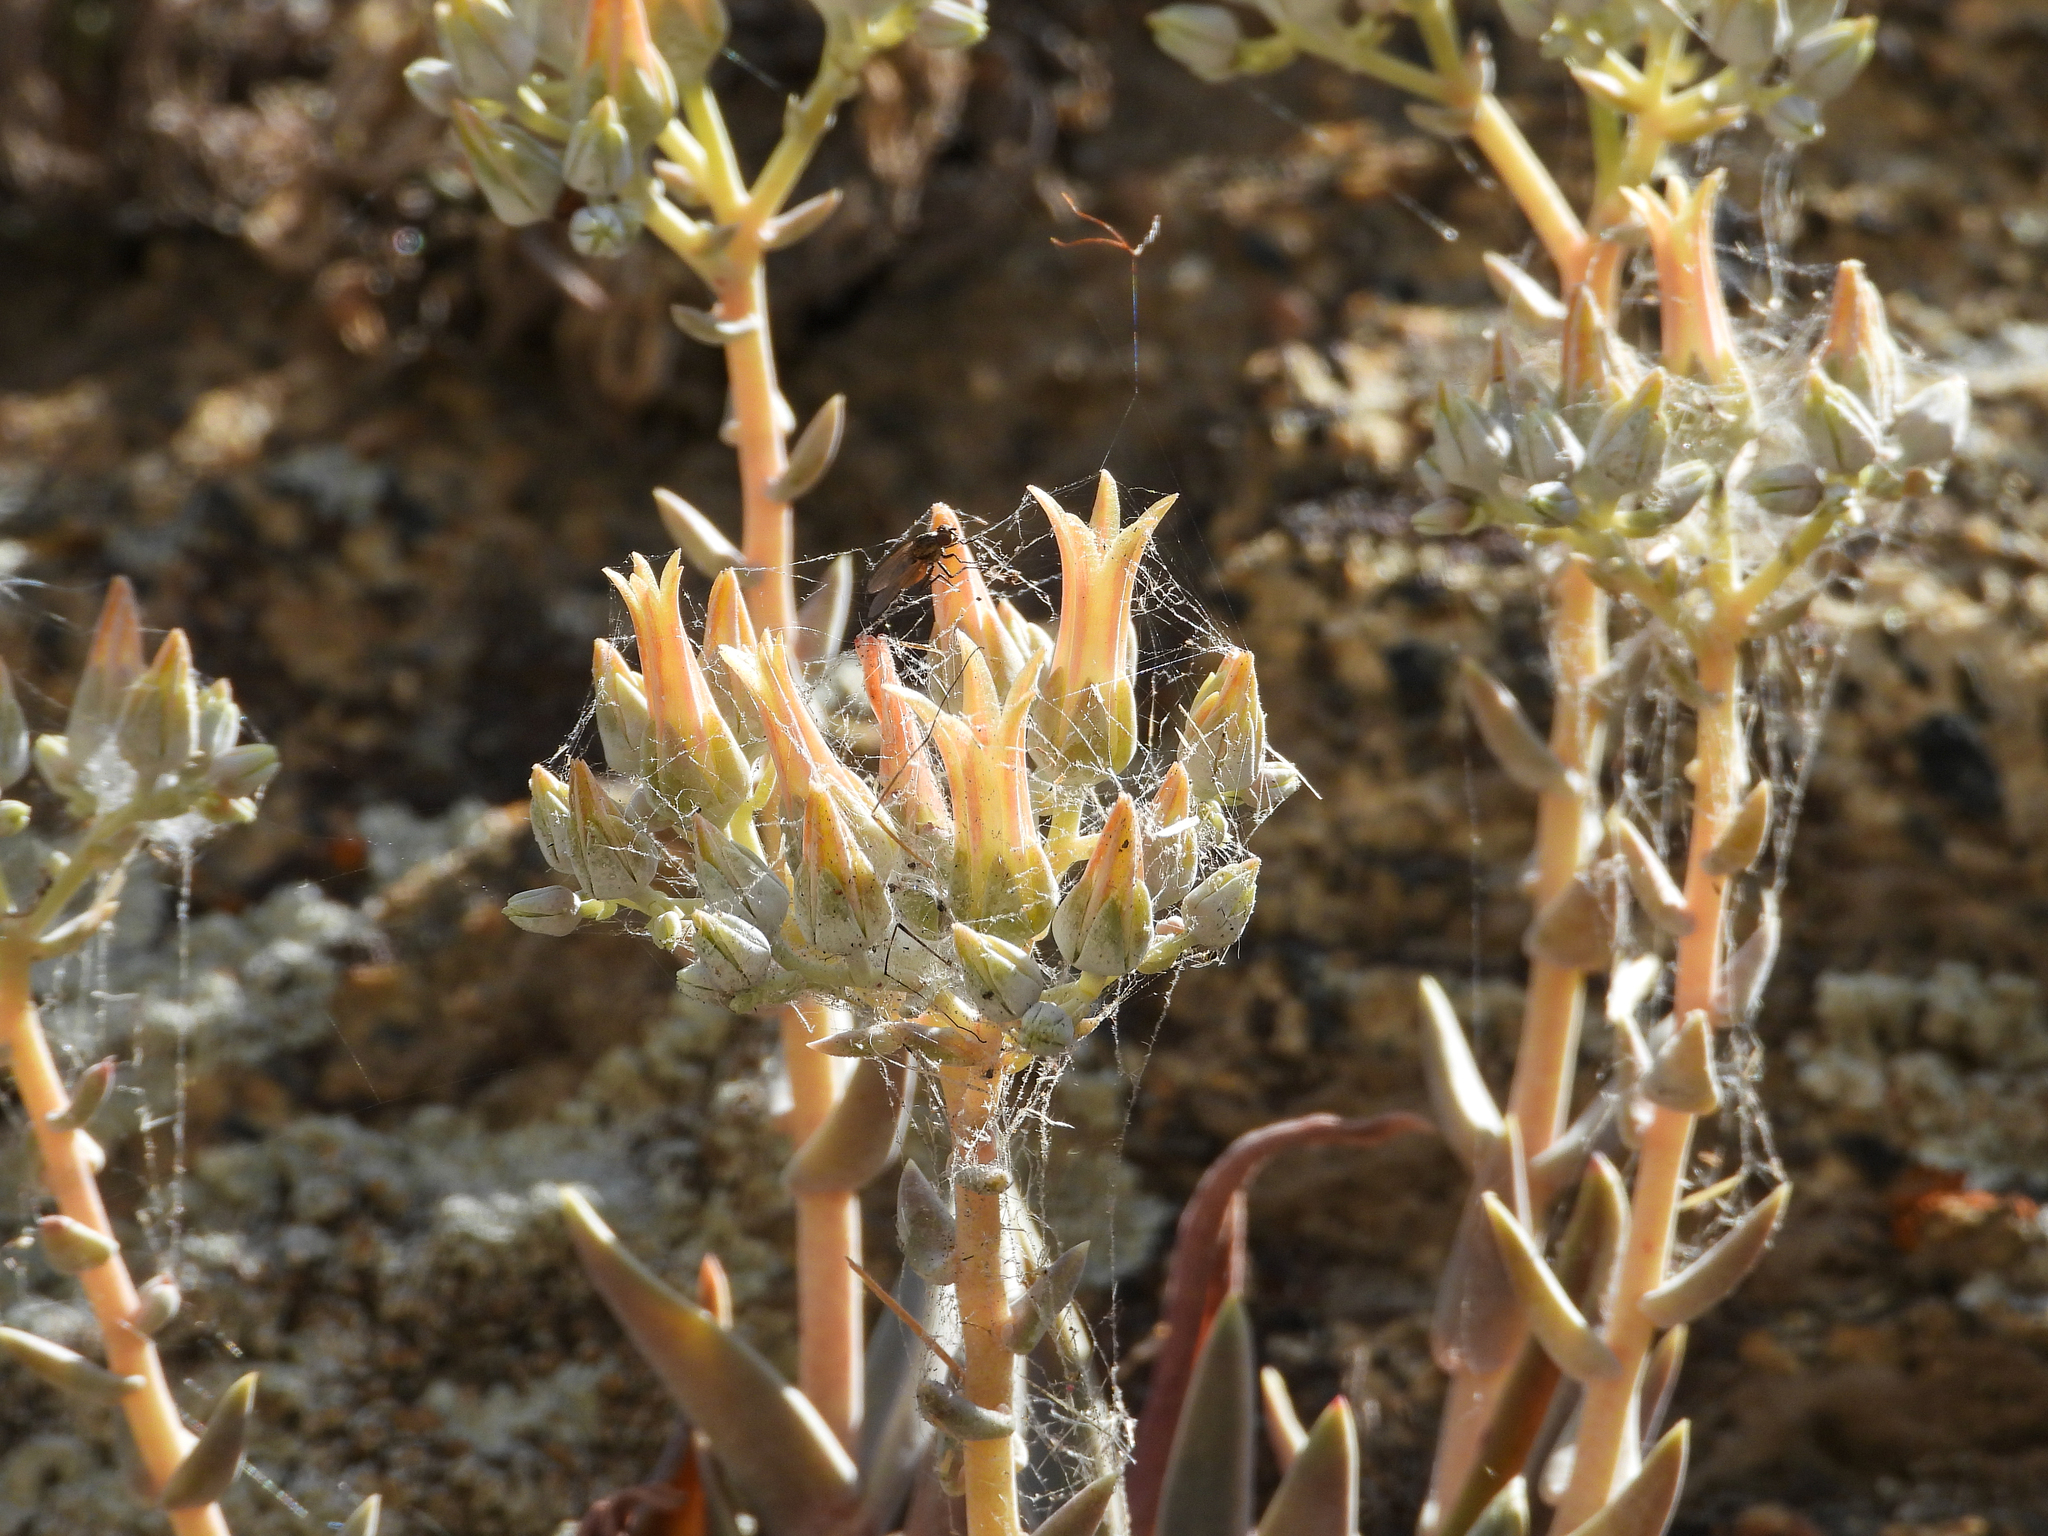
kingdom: Plantae
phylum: Tracheophyta
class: Magnoliopsida
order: Saxifragales
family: Crassulaceae
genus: Dudleya
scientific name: Dudleya abramsii
